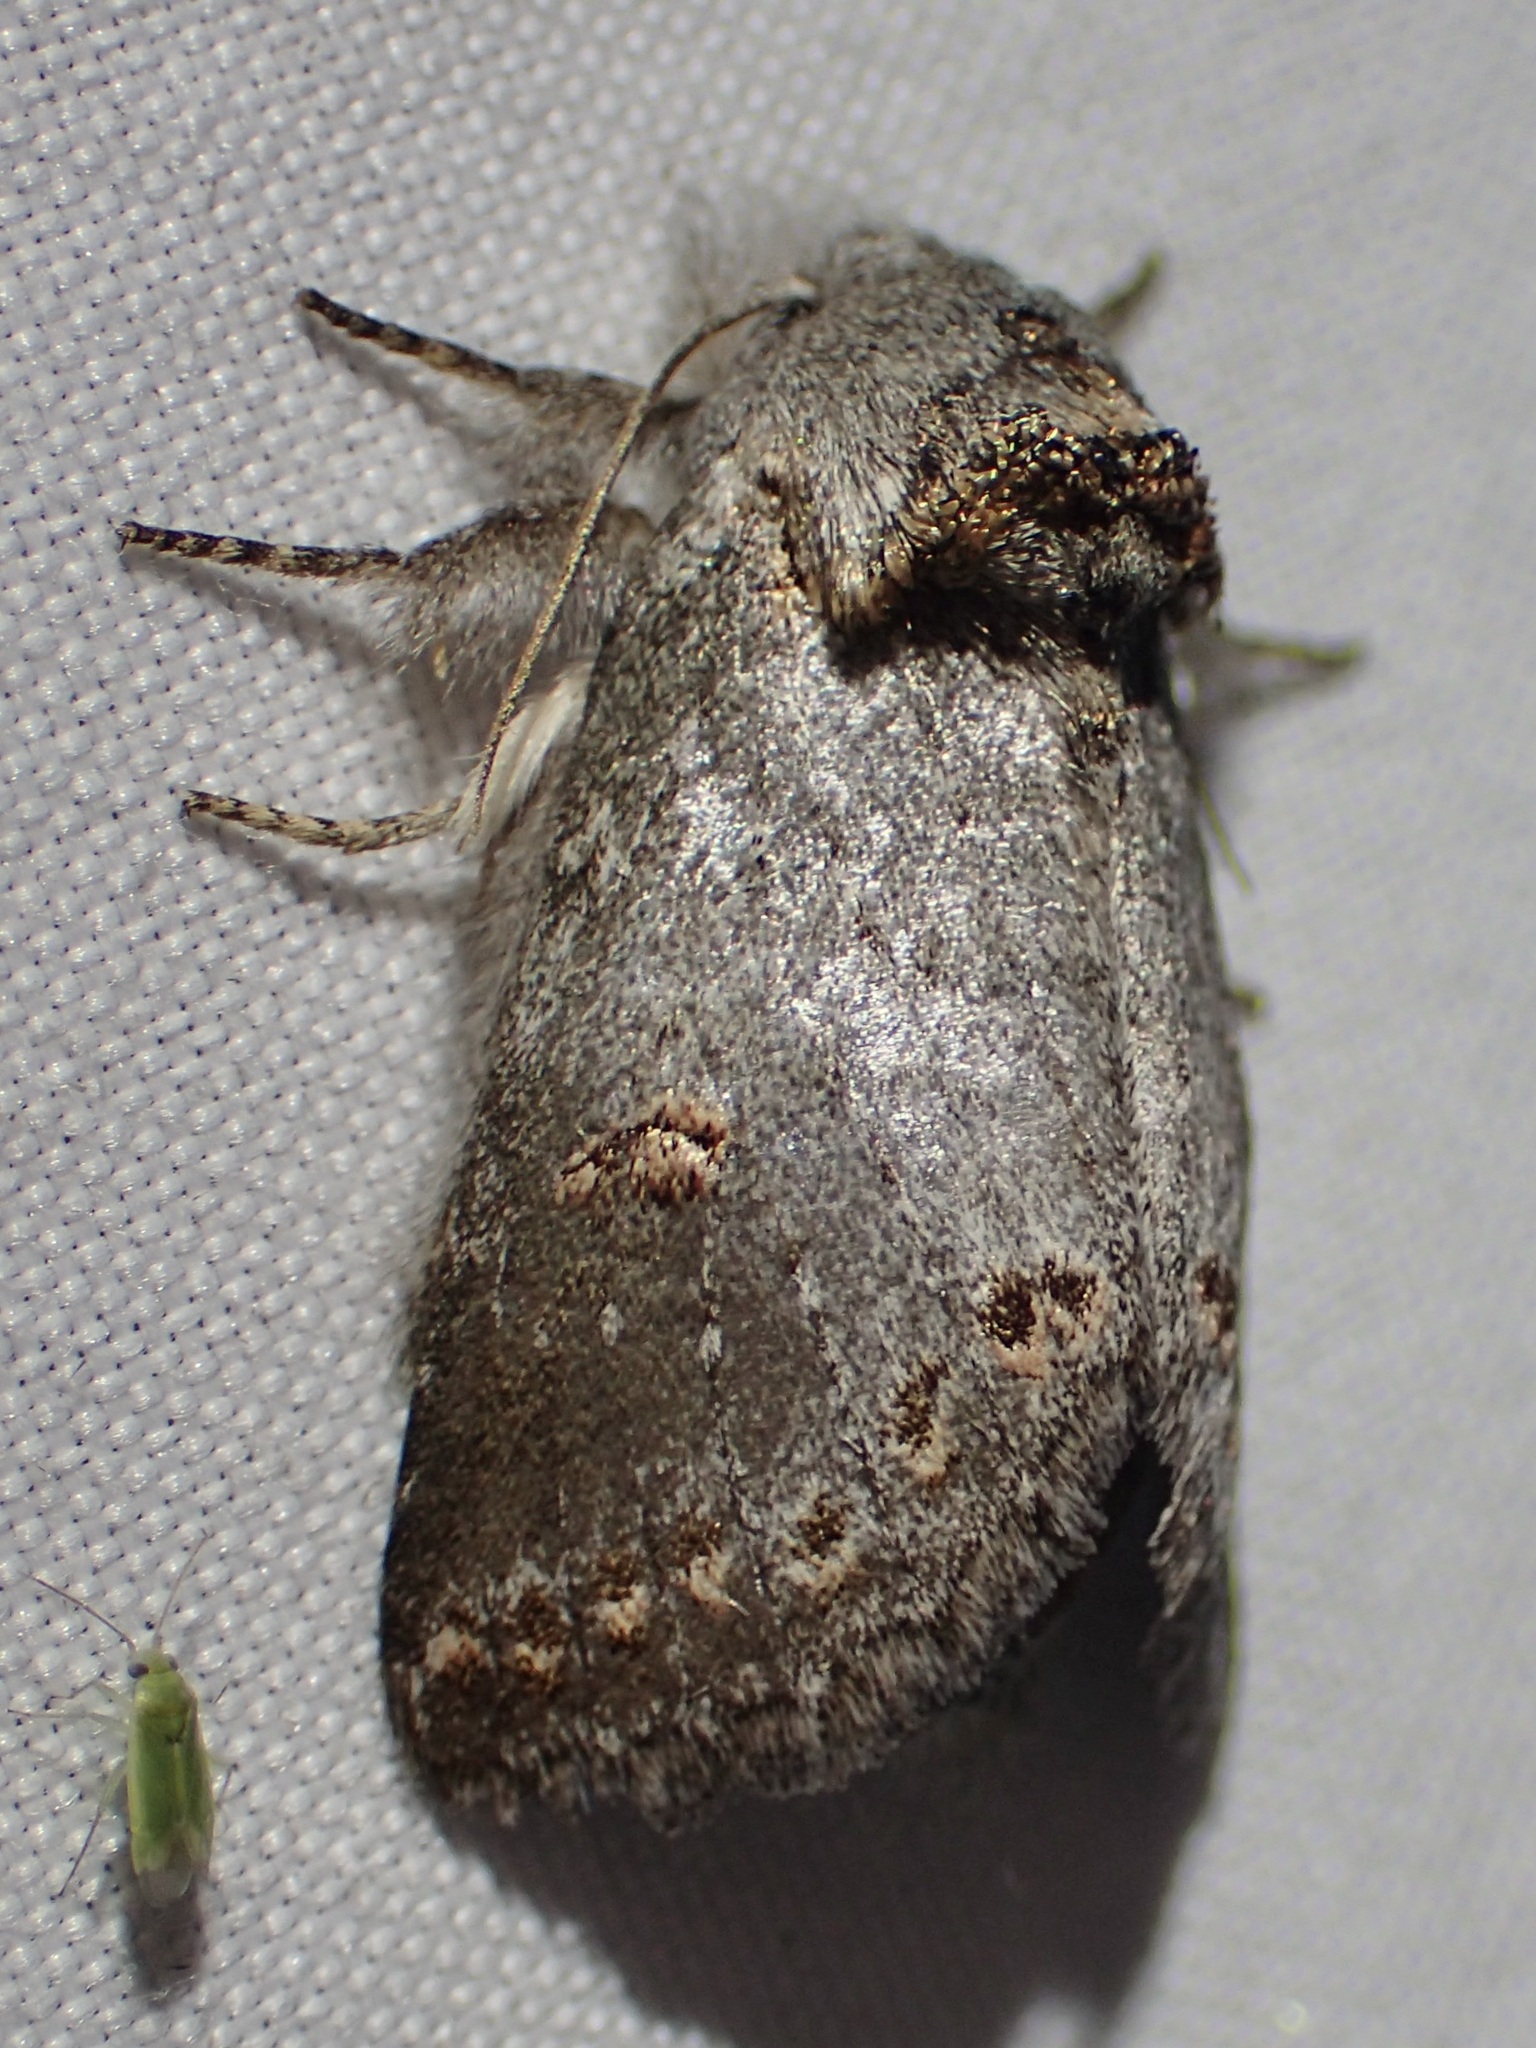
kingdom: Animalia
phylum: Arthropoda
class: Insecta
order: Lepidoptera
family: Notodontidae
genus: Theroa
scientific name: Theroa zethus
